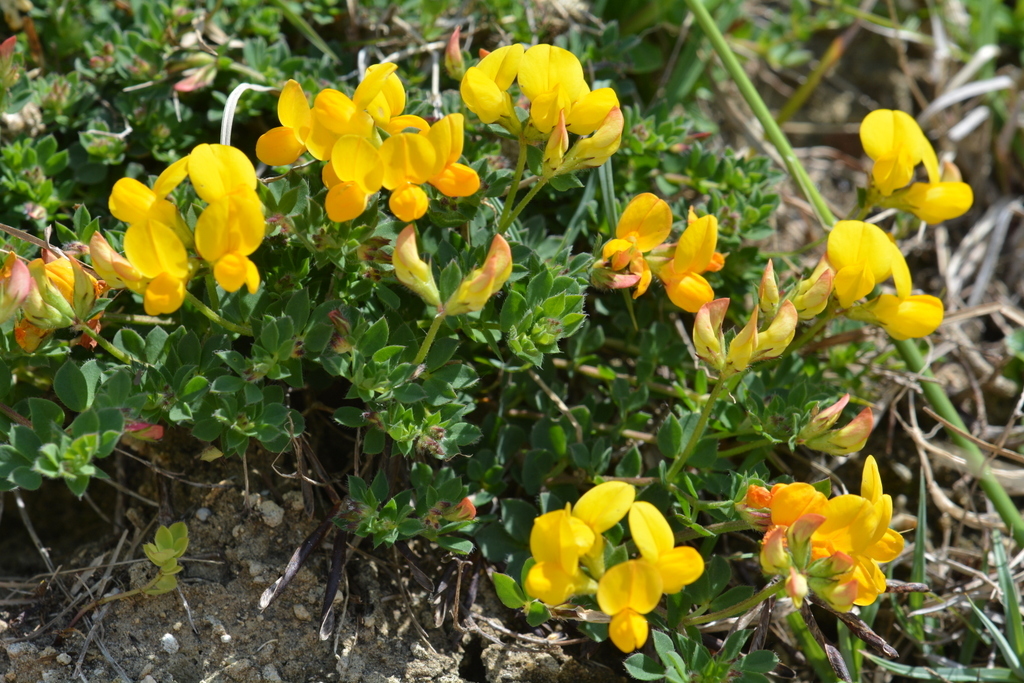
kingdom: Plantae
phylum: Tracheophyta
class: Magnoliopsida
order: Fabales
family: Fabaceae
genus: Lotus
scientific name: Lotus corniculatus
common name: Common bird's-foot-trefoil
